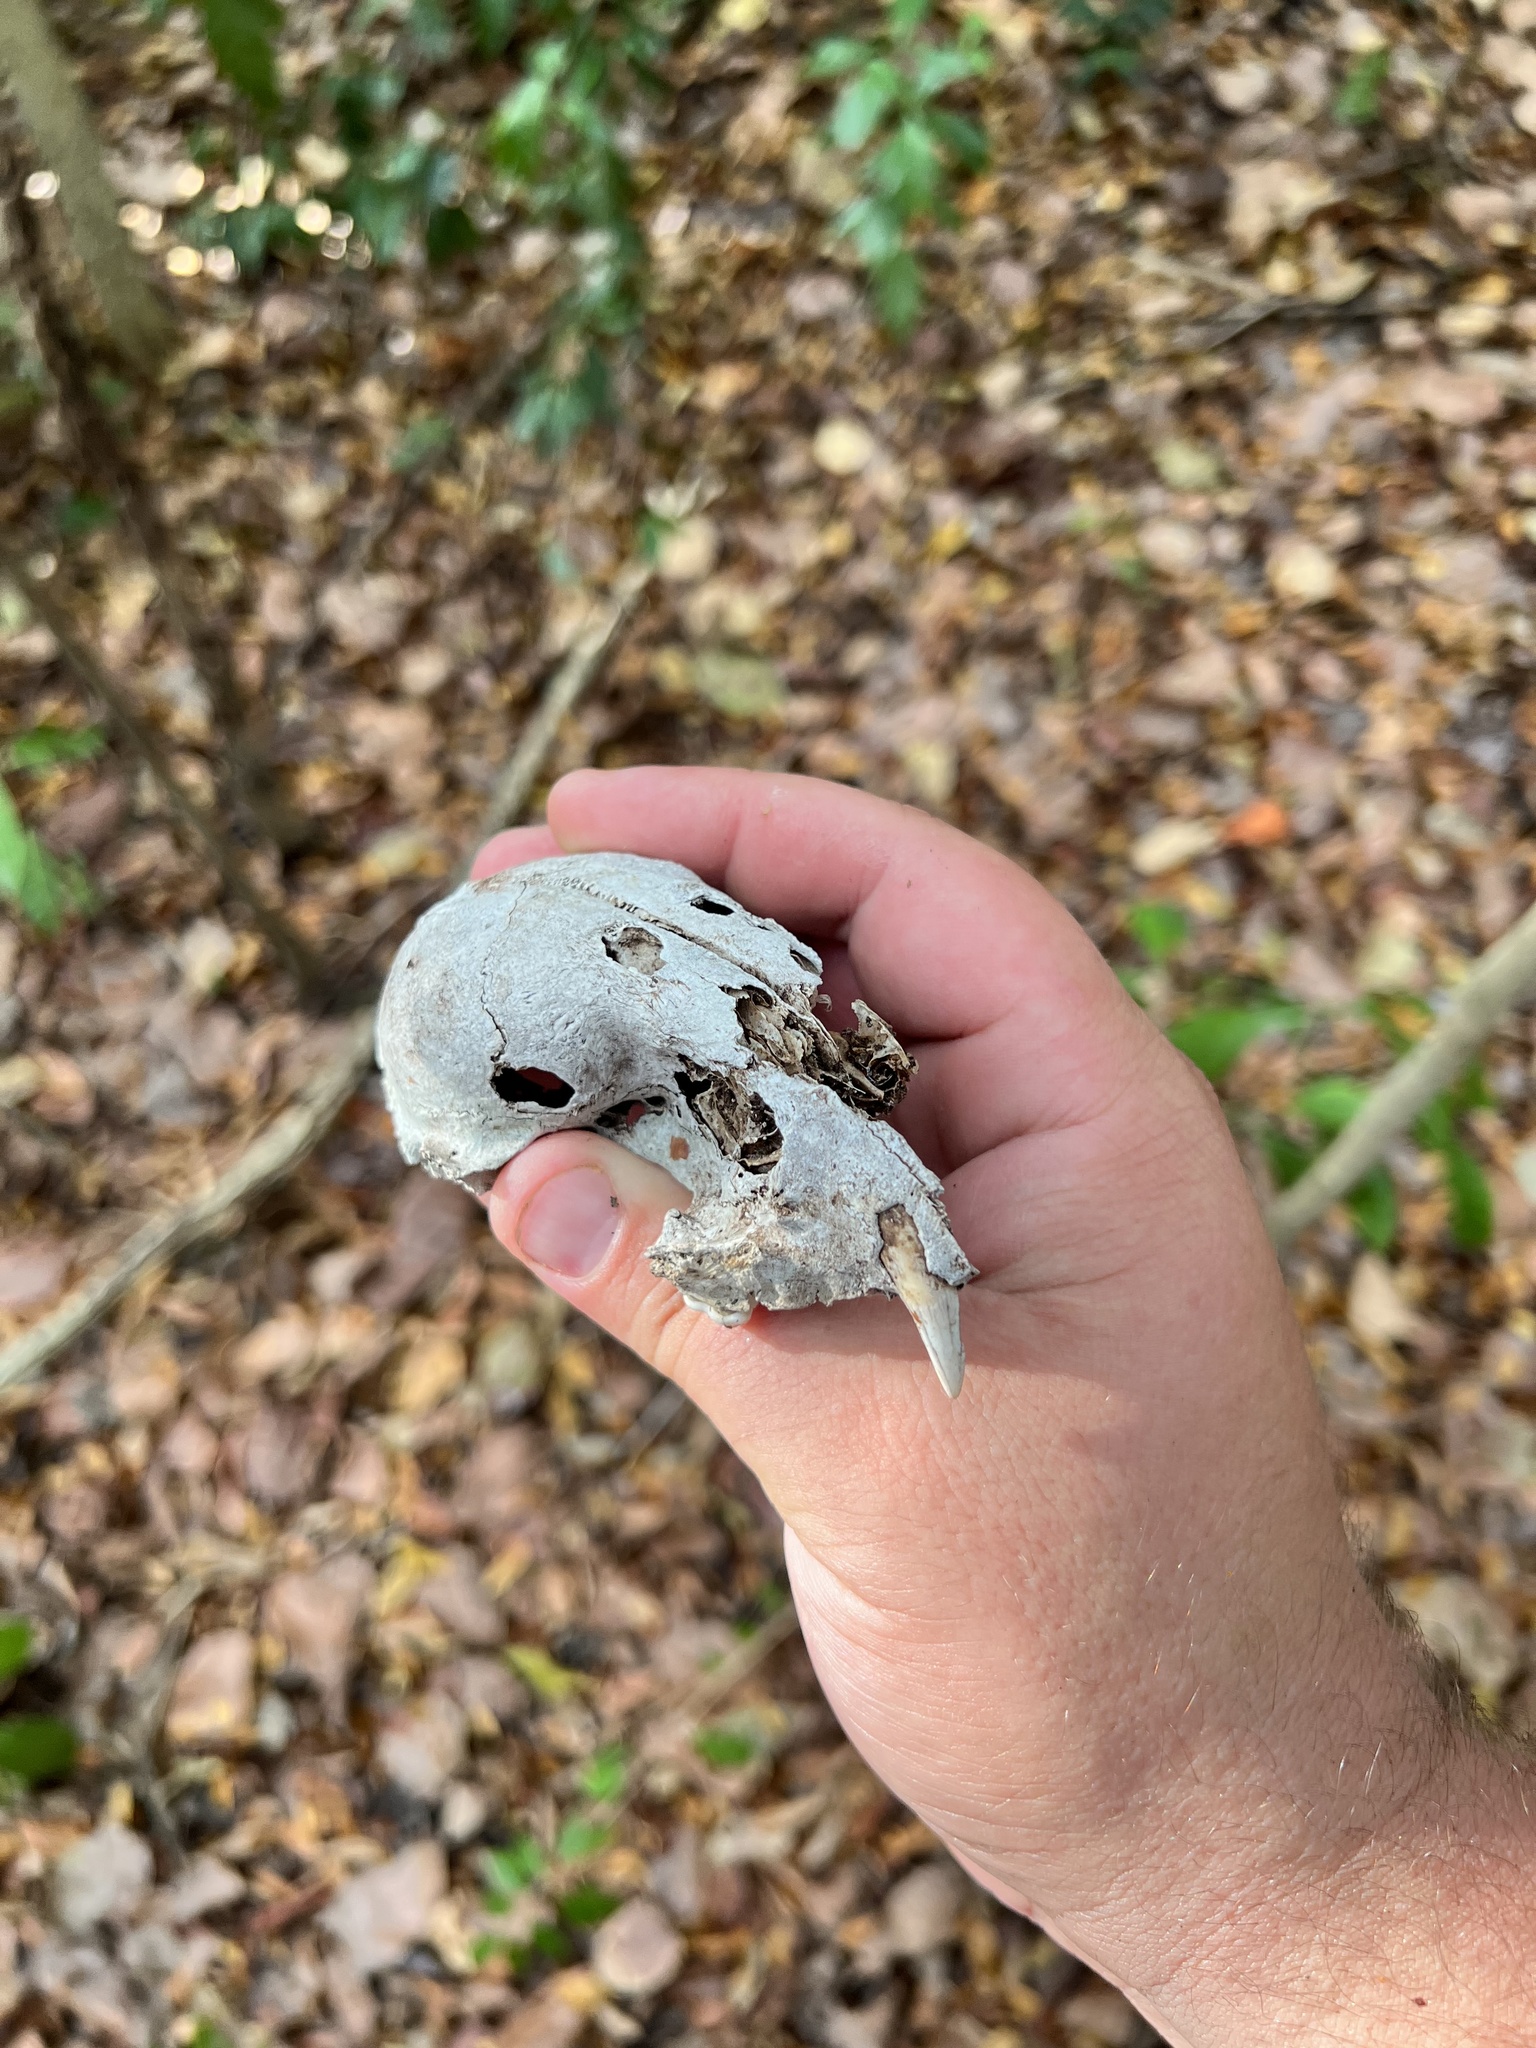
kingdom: Animalia
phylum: Chordata
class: Mammalia
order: Carnivora
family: Procyonidae
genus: Procyon
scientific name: Procyon lotor
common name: Raccoon
